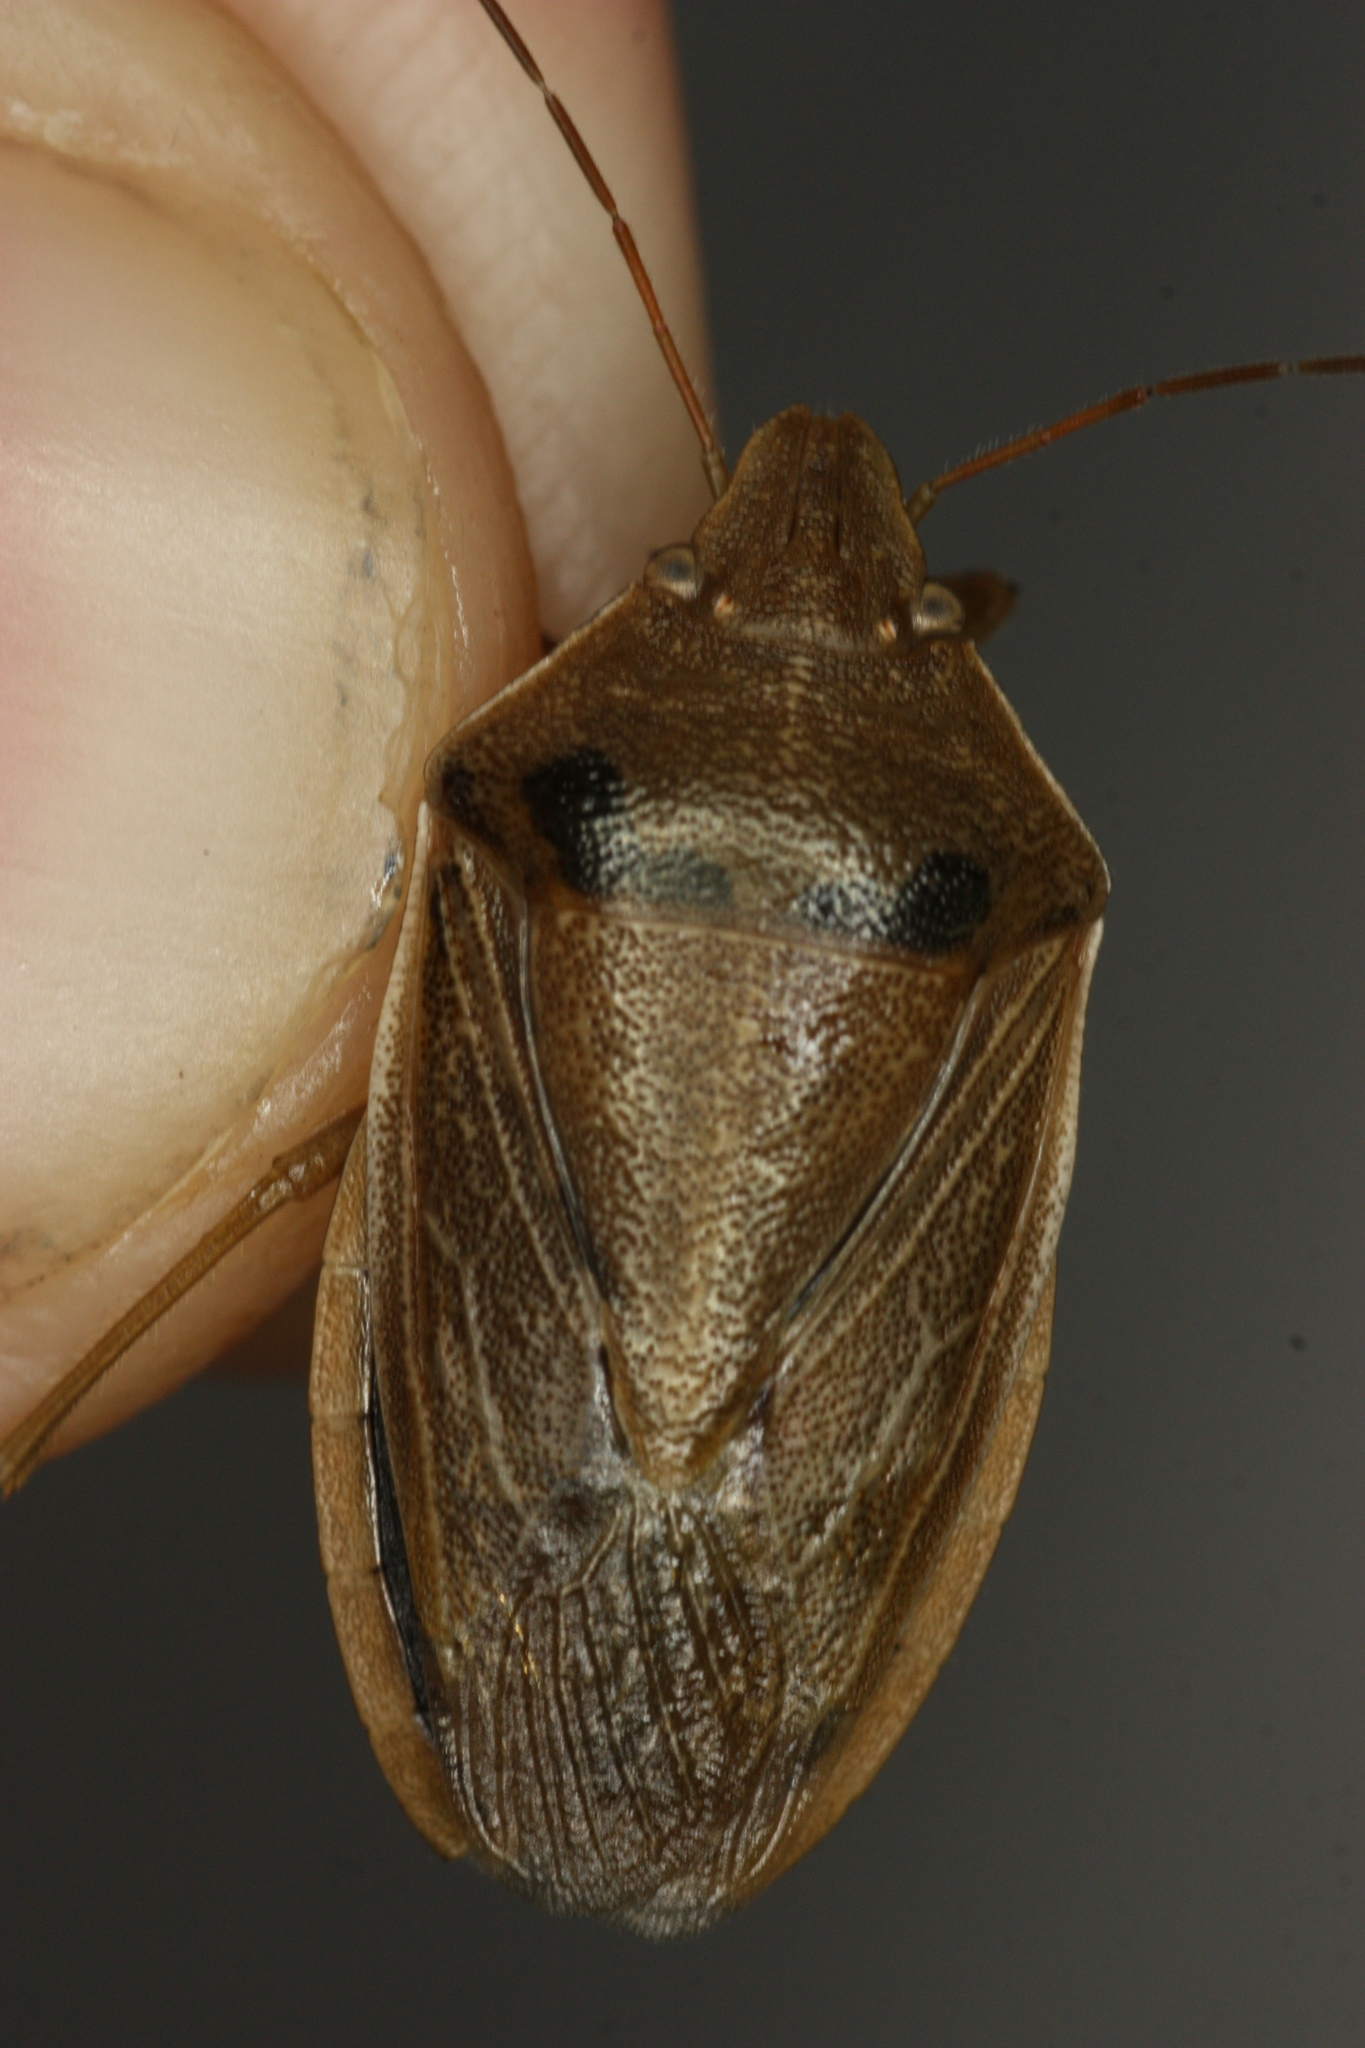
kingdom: Animalia
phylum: Arthropoda
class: Insecta
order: Hemiptera
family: Pentatomidae
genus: Chlorochroa
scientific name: Chlorochroa senilis
